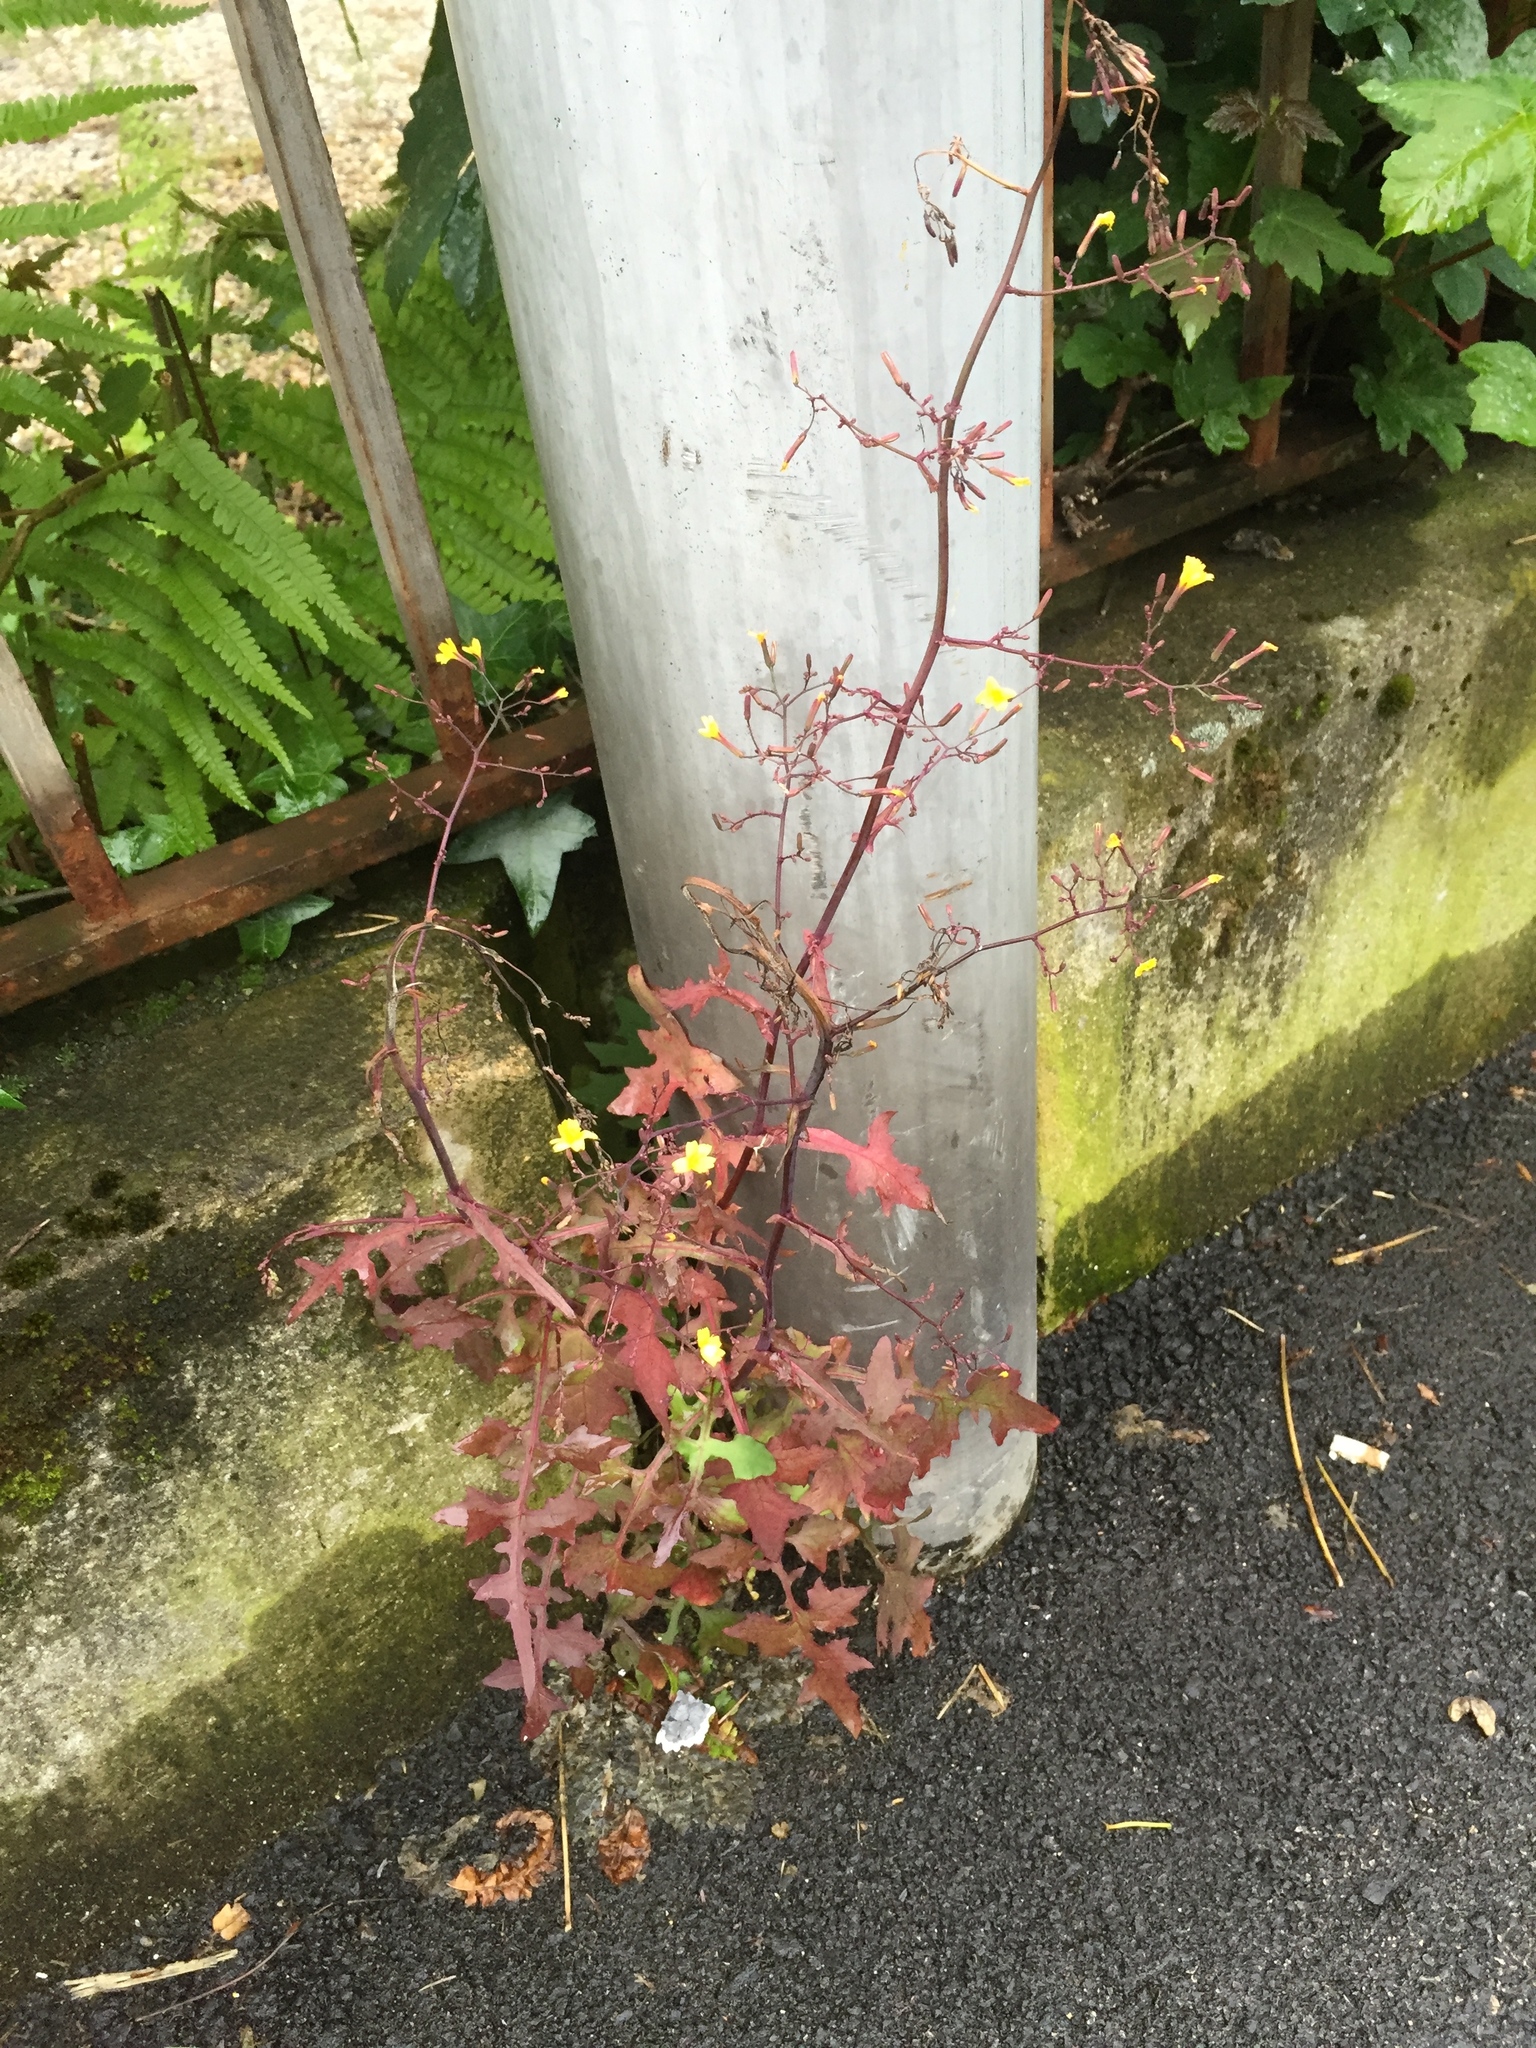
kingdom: Plantae
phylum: Tracheophyta
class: Magnoliopsida
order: Asterales
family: Asteraceae
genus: Mycelis
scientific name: Mycelis muralis
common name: Wall lettuce
